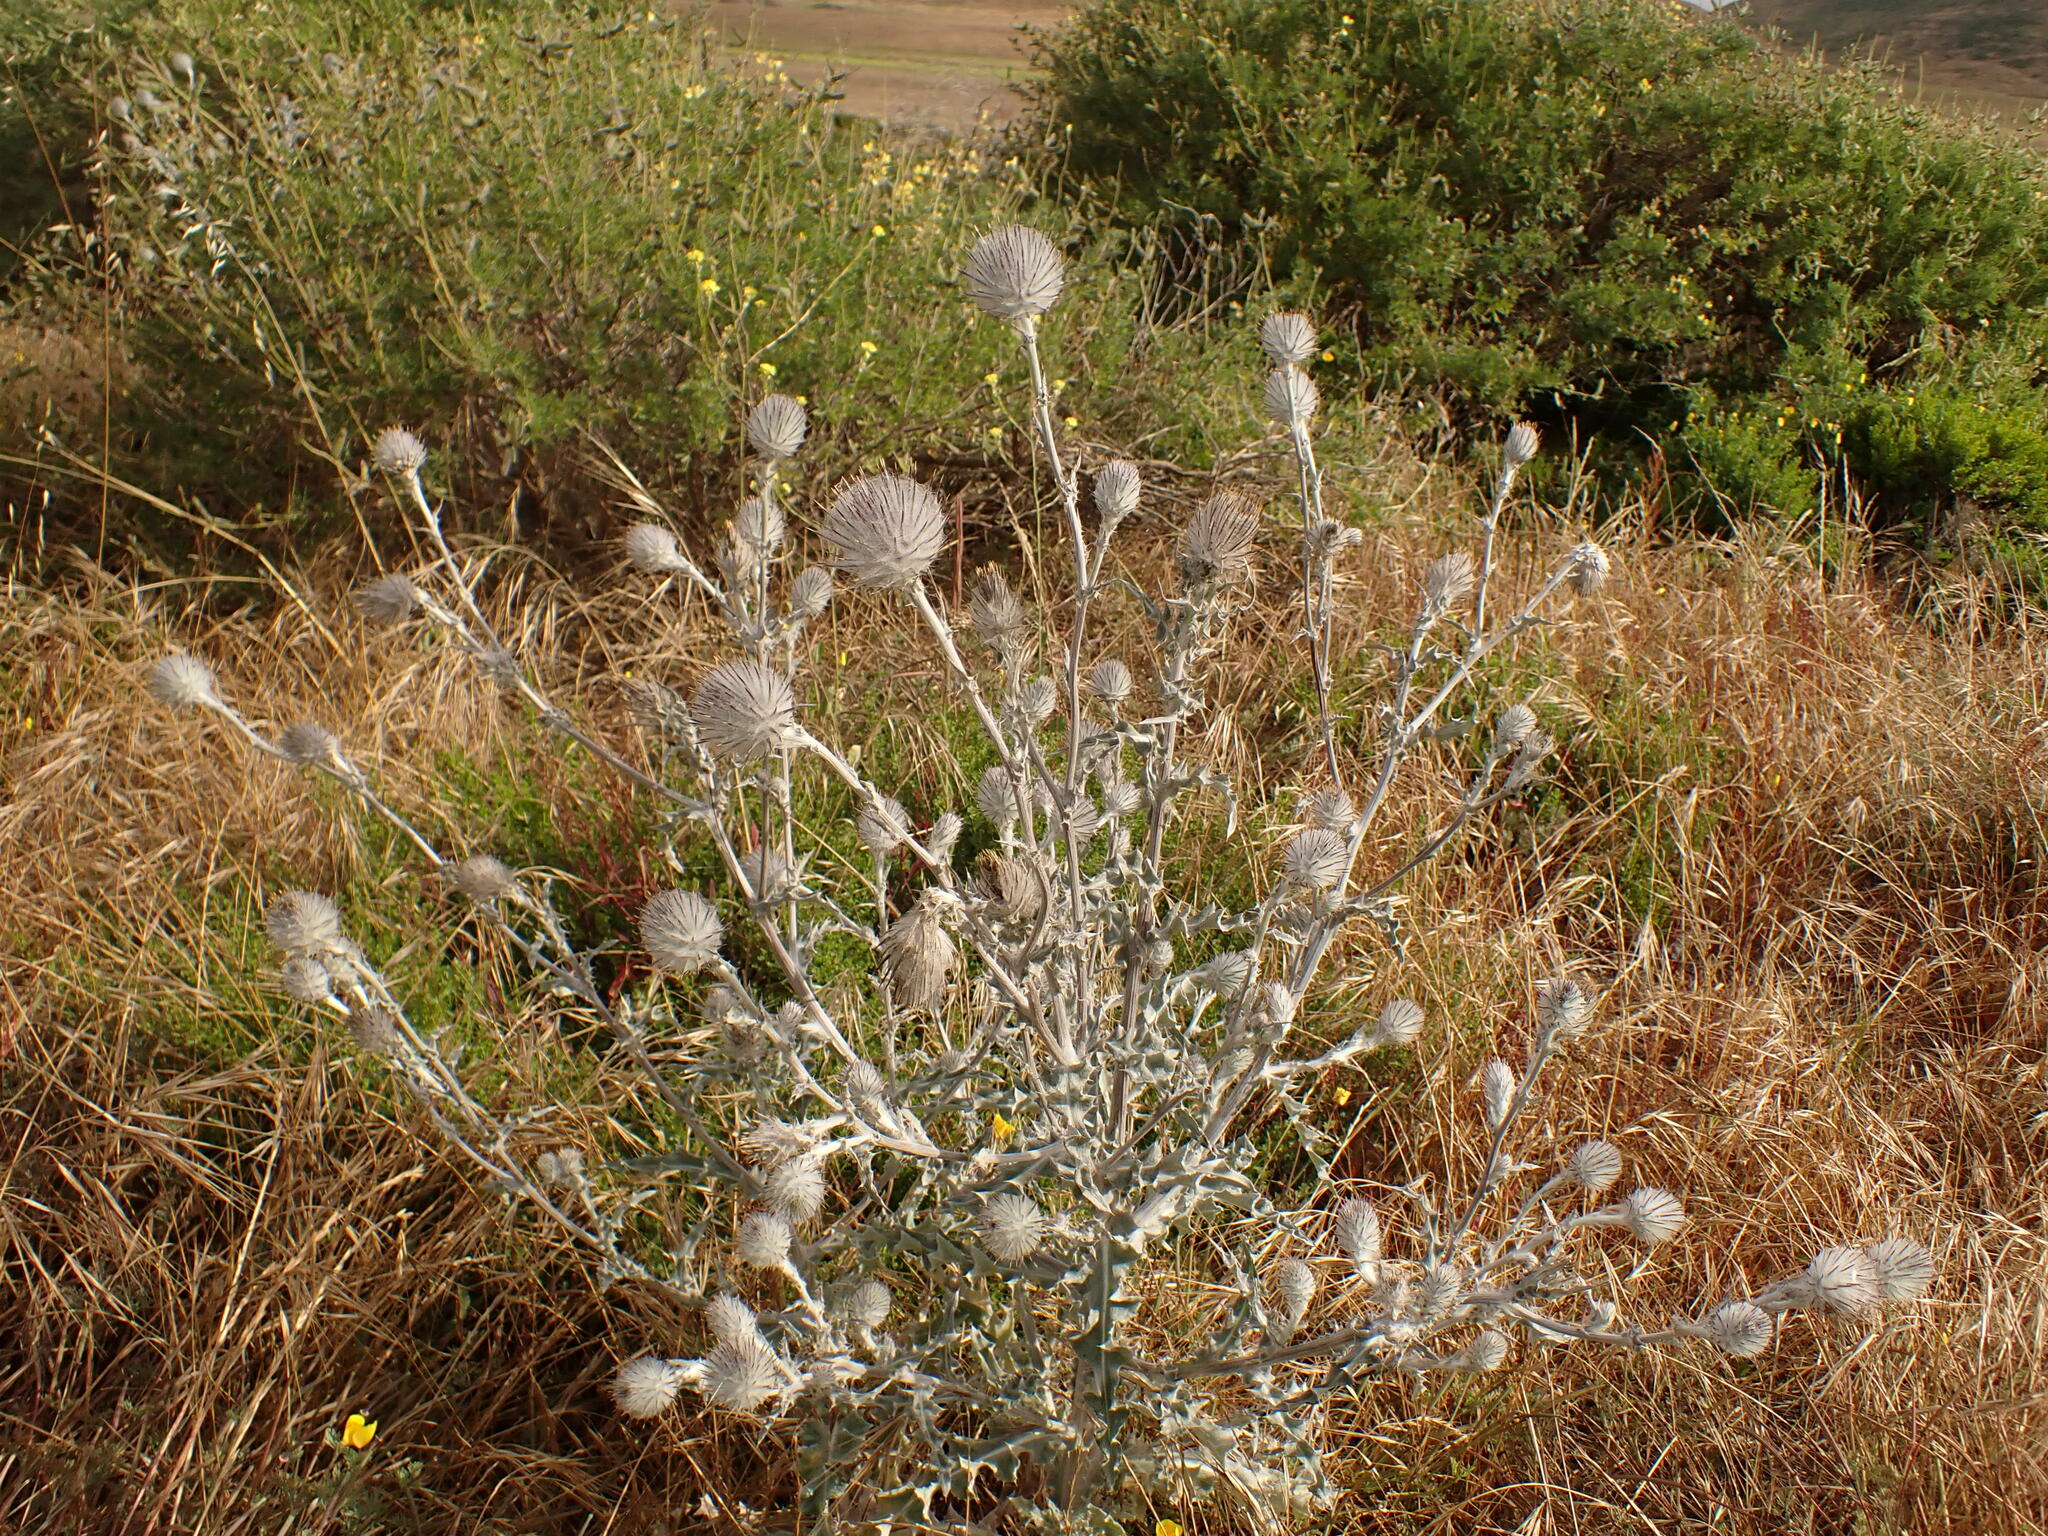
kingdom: Plantae
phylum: Tracheophyta
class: Magnoliopsida
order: Asterales
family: Asteraceae
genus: Cirsium
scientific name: Cirsium occidentale
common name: Western thistle
